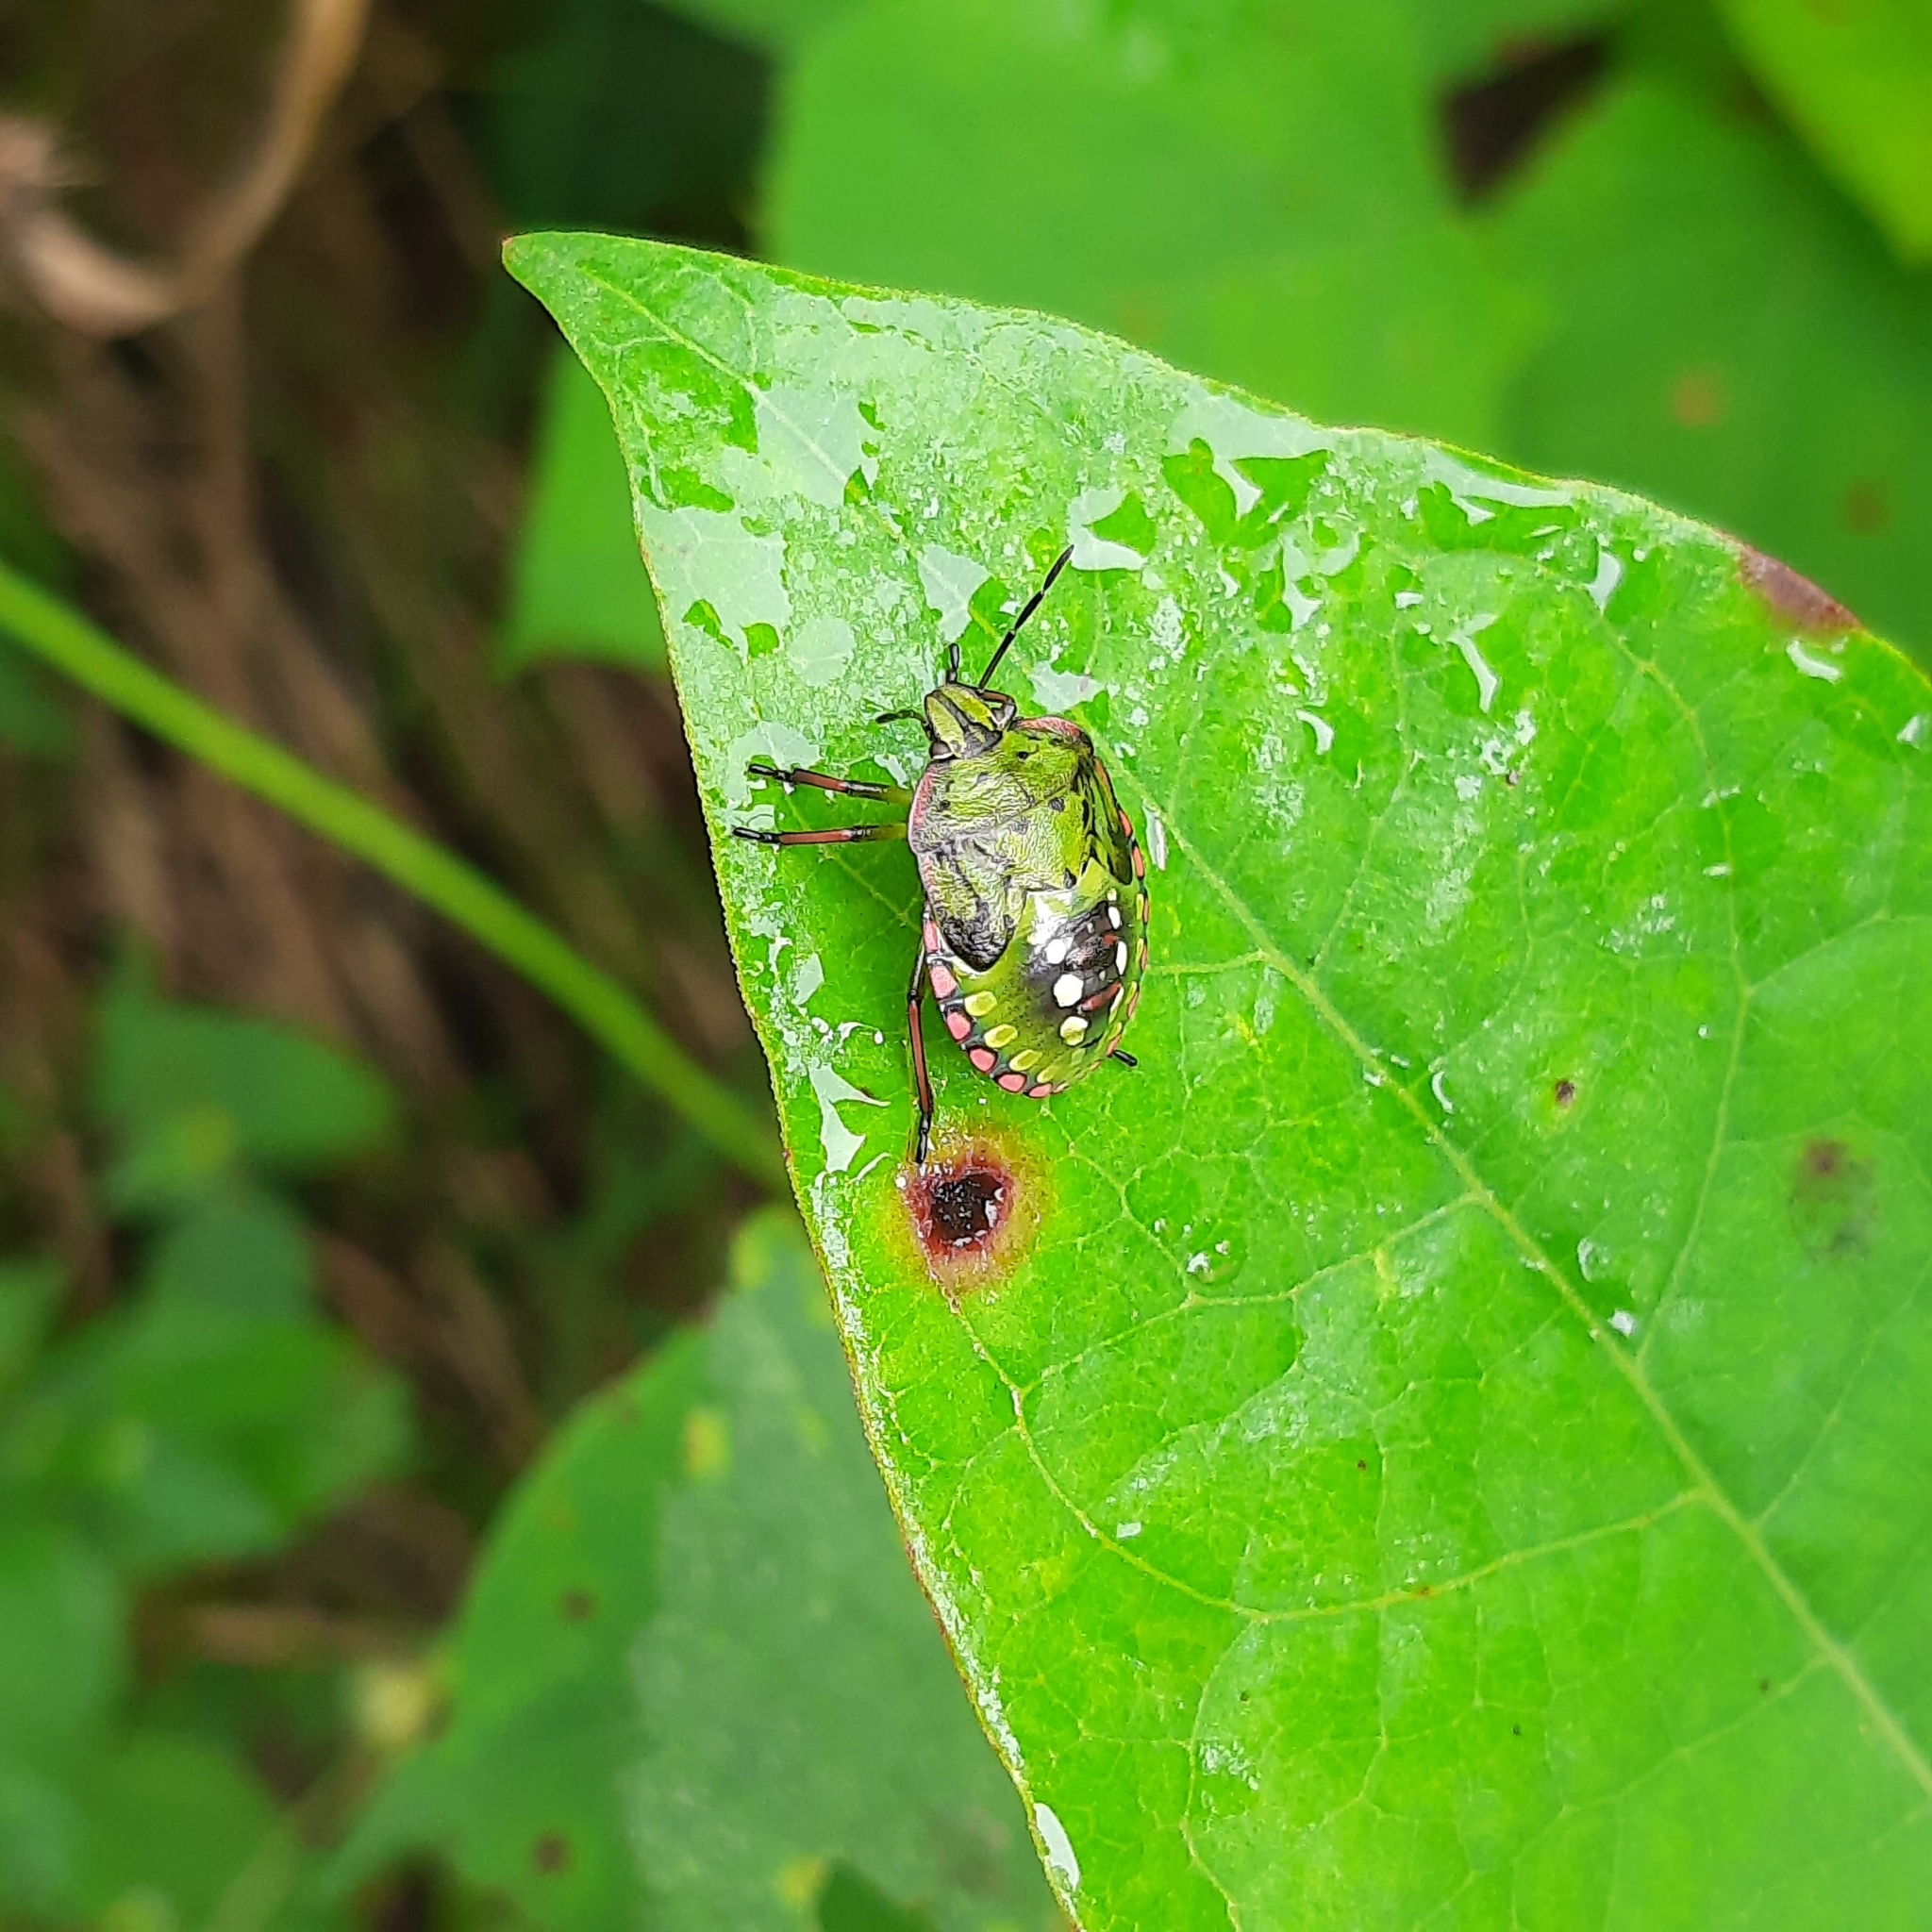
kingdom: Animalia
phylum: Arthropoda
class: Insecta
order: Hemiptera
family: Pentatomidae
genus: Nezara
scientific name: Nezara viridula
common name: Southern green stink bug
